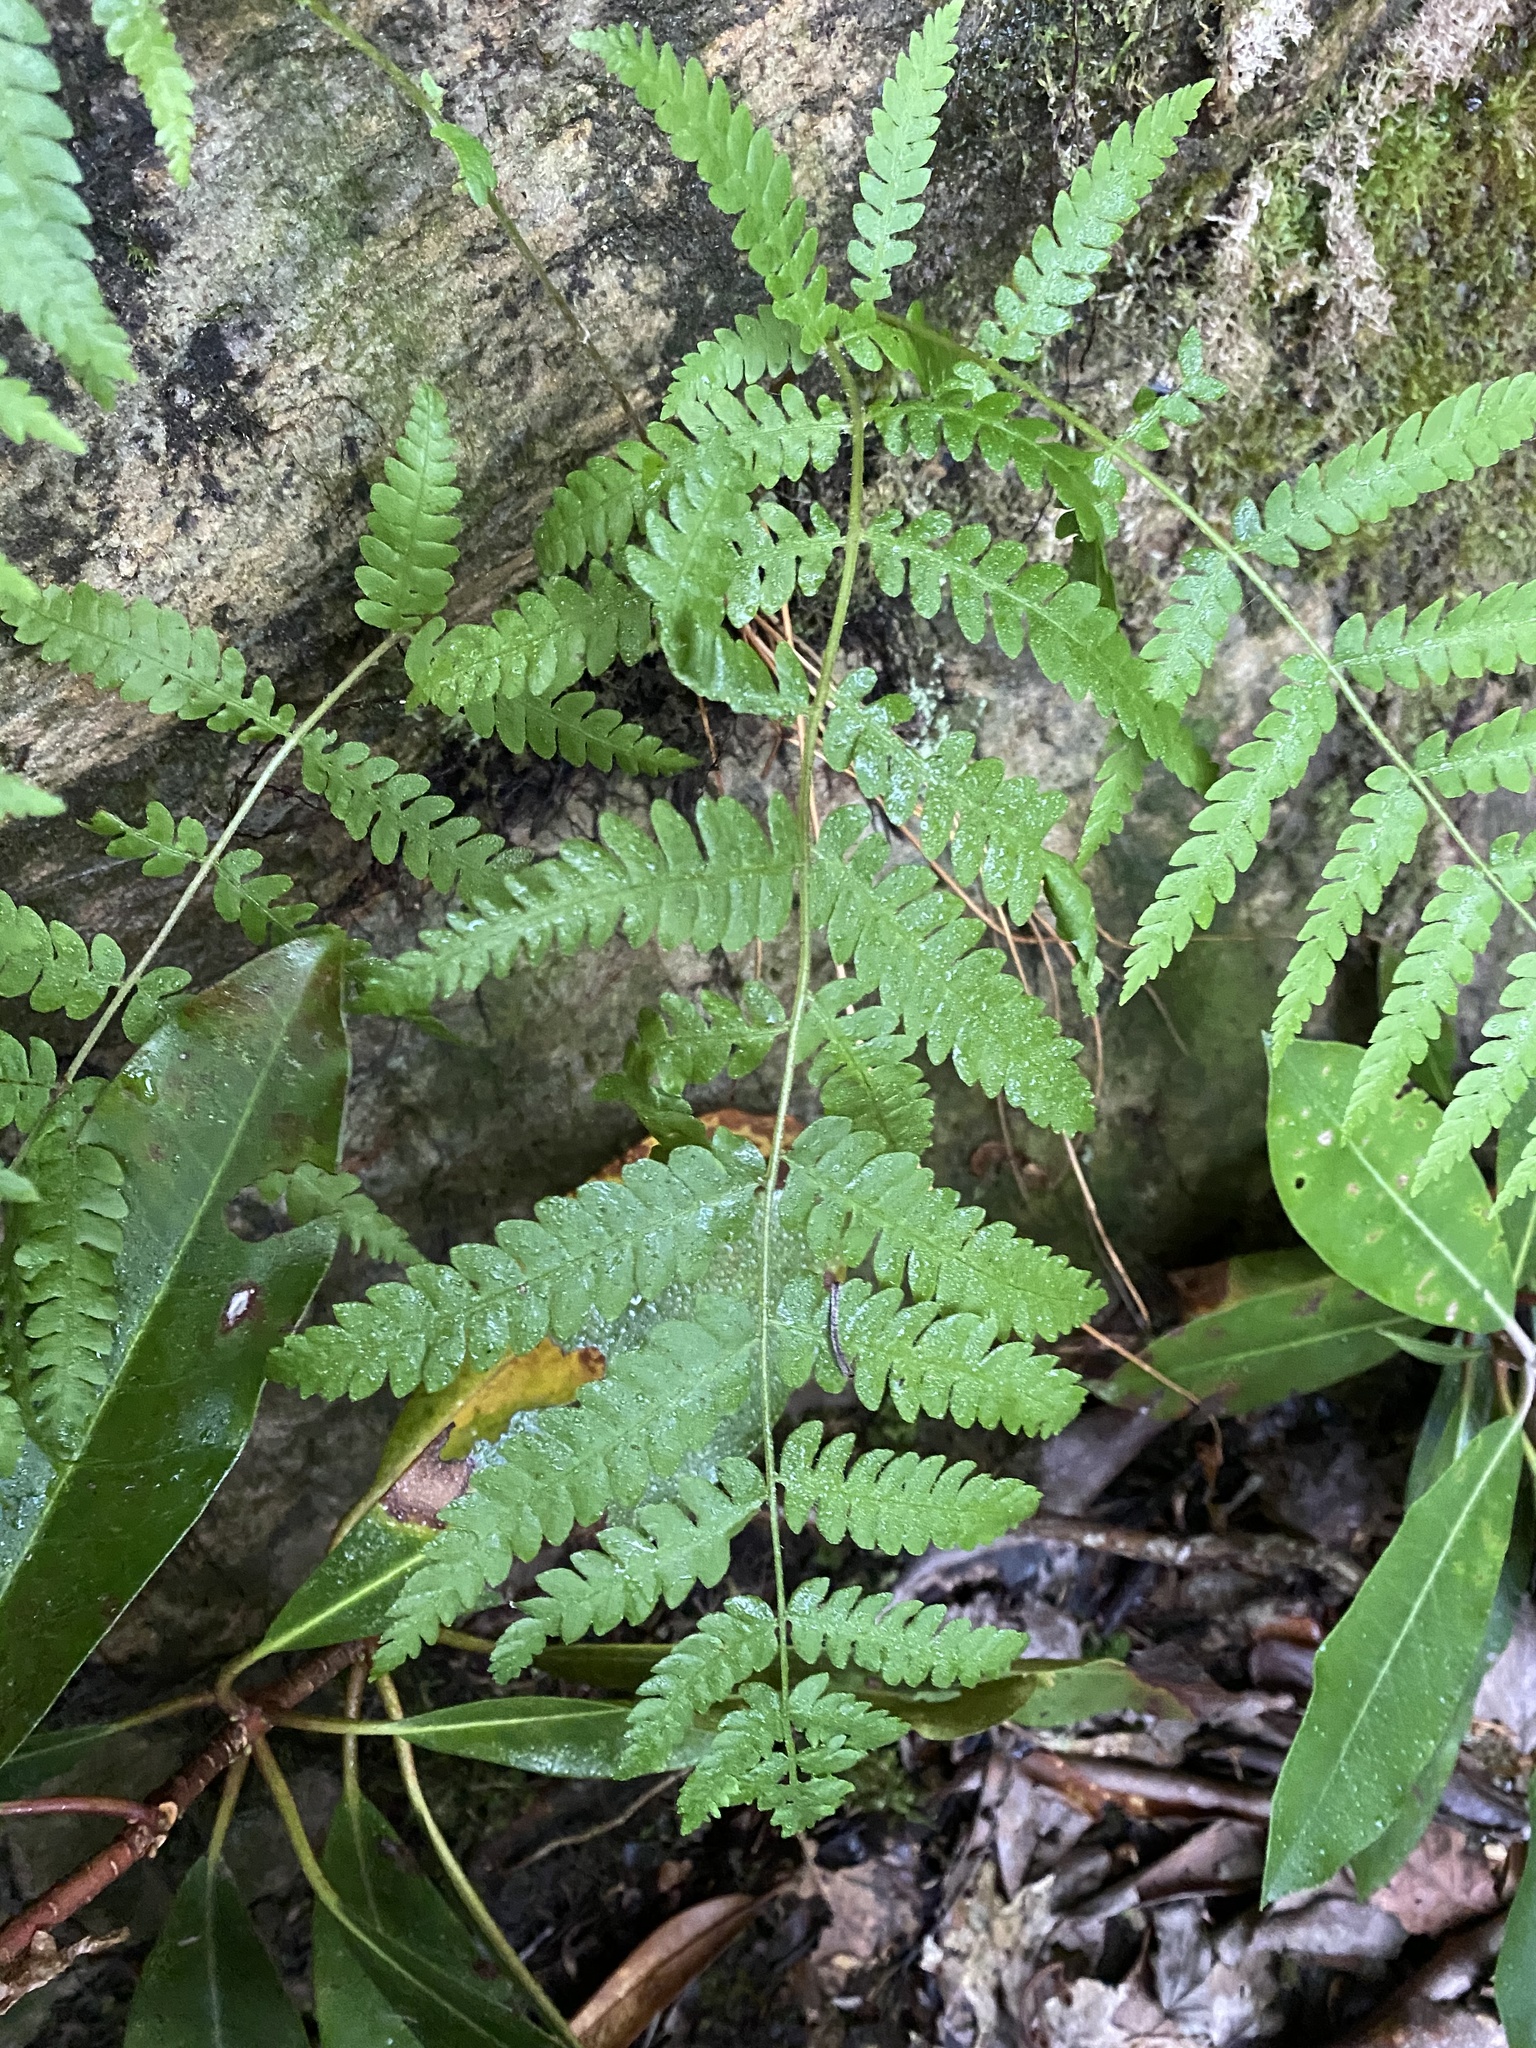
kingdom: Plantae
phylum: Tracheophyta
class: Polypodiopsida
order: Osmundales
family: Osmundaceae
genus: Osmundastrum
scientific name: Osmundastrum cinnamomeum
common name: Cinnamon fern
